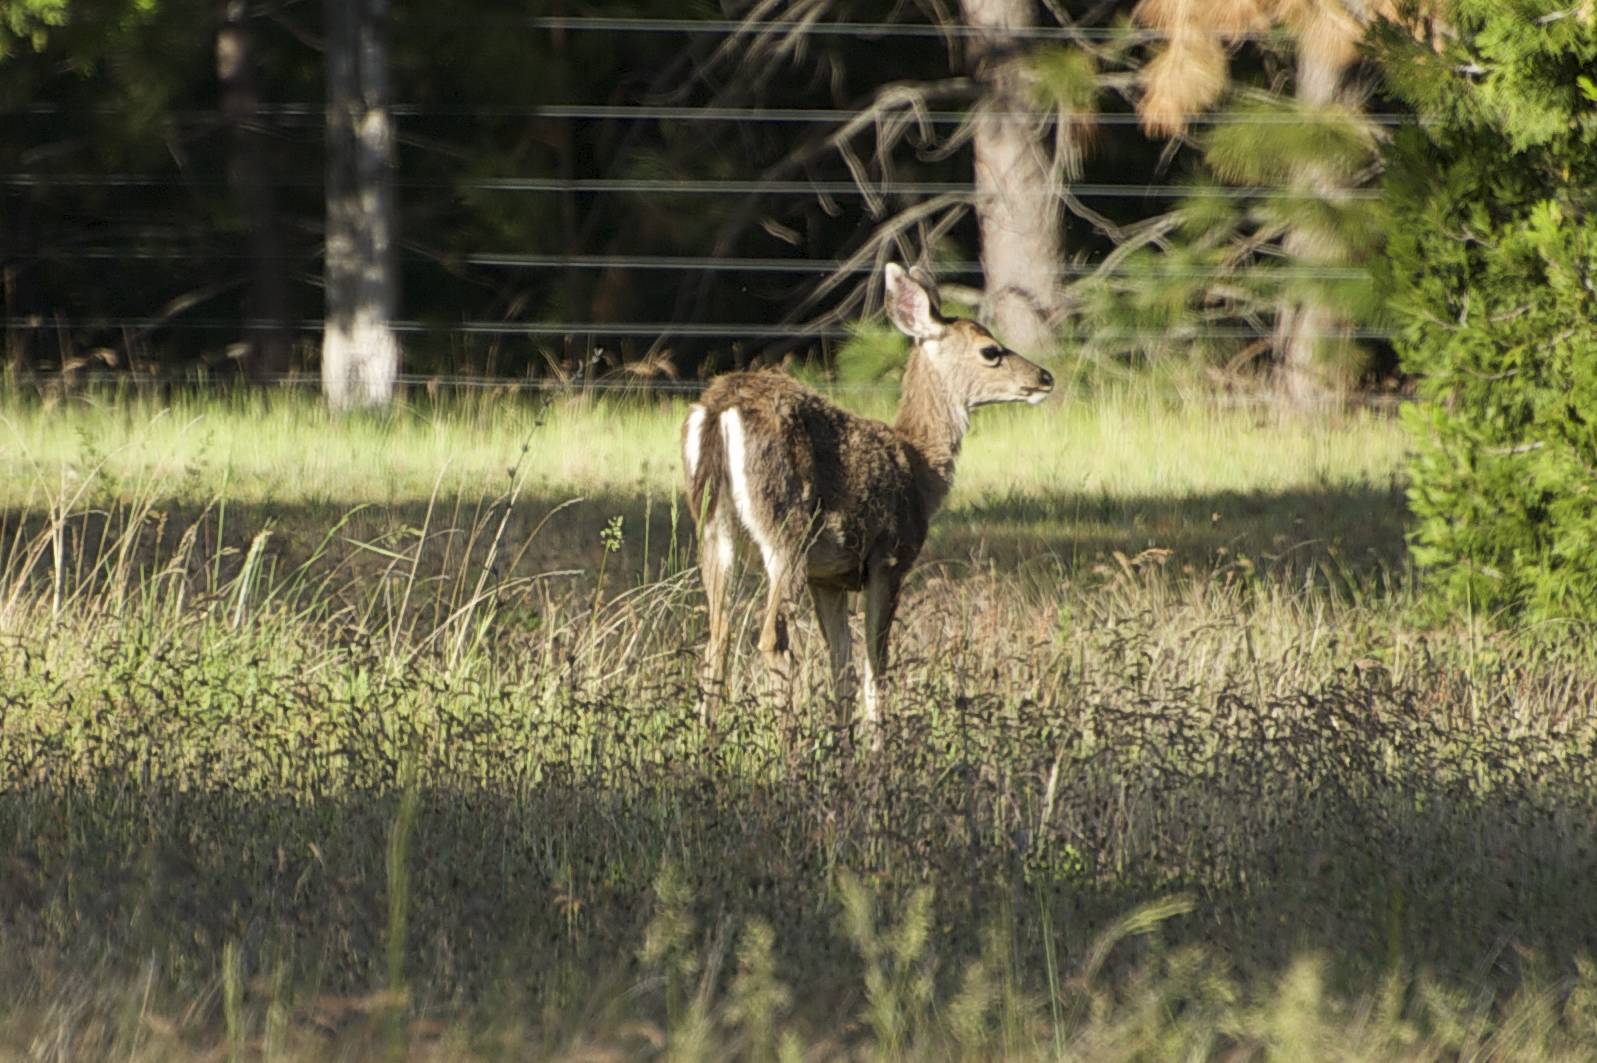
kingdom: Animalia
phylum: Chordata
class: Mammalia
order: Artiodactyla
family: Cervidae
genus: Odocoileus
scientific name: Odocoileus hemionus
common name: Mule deer
